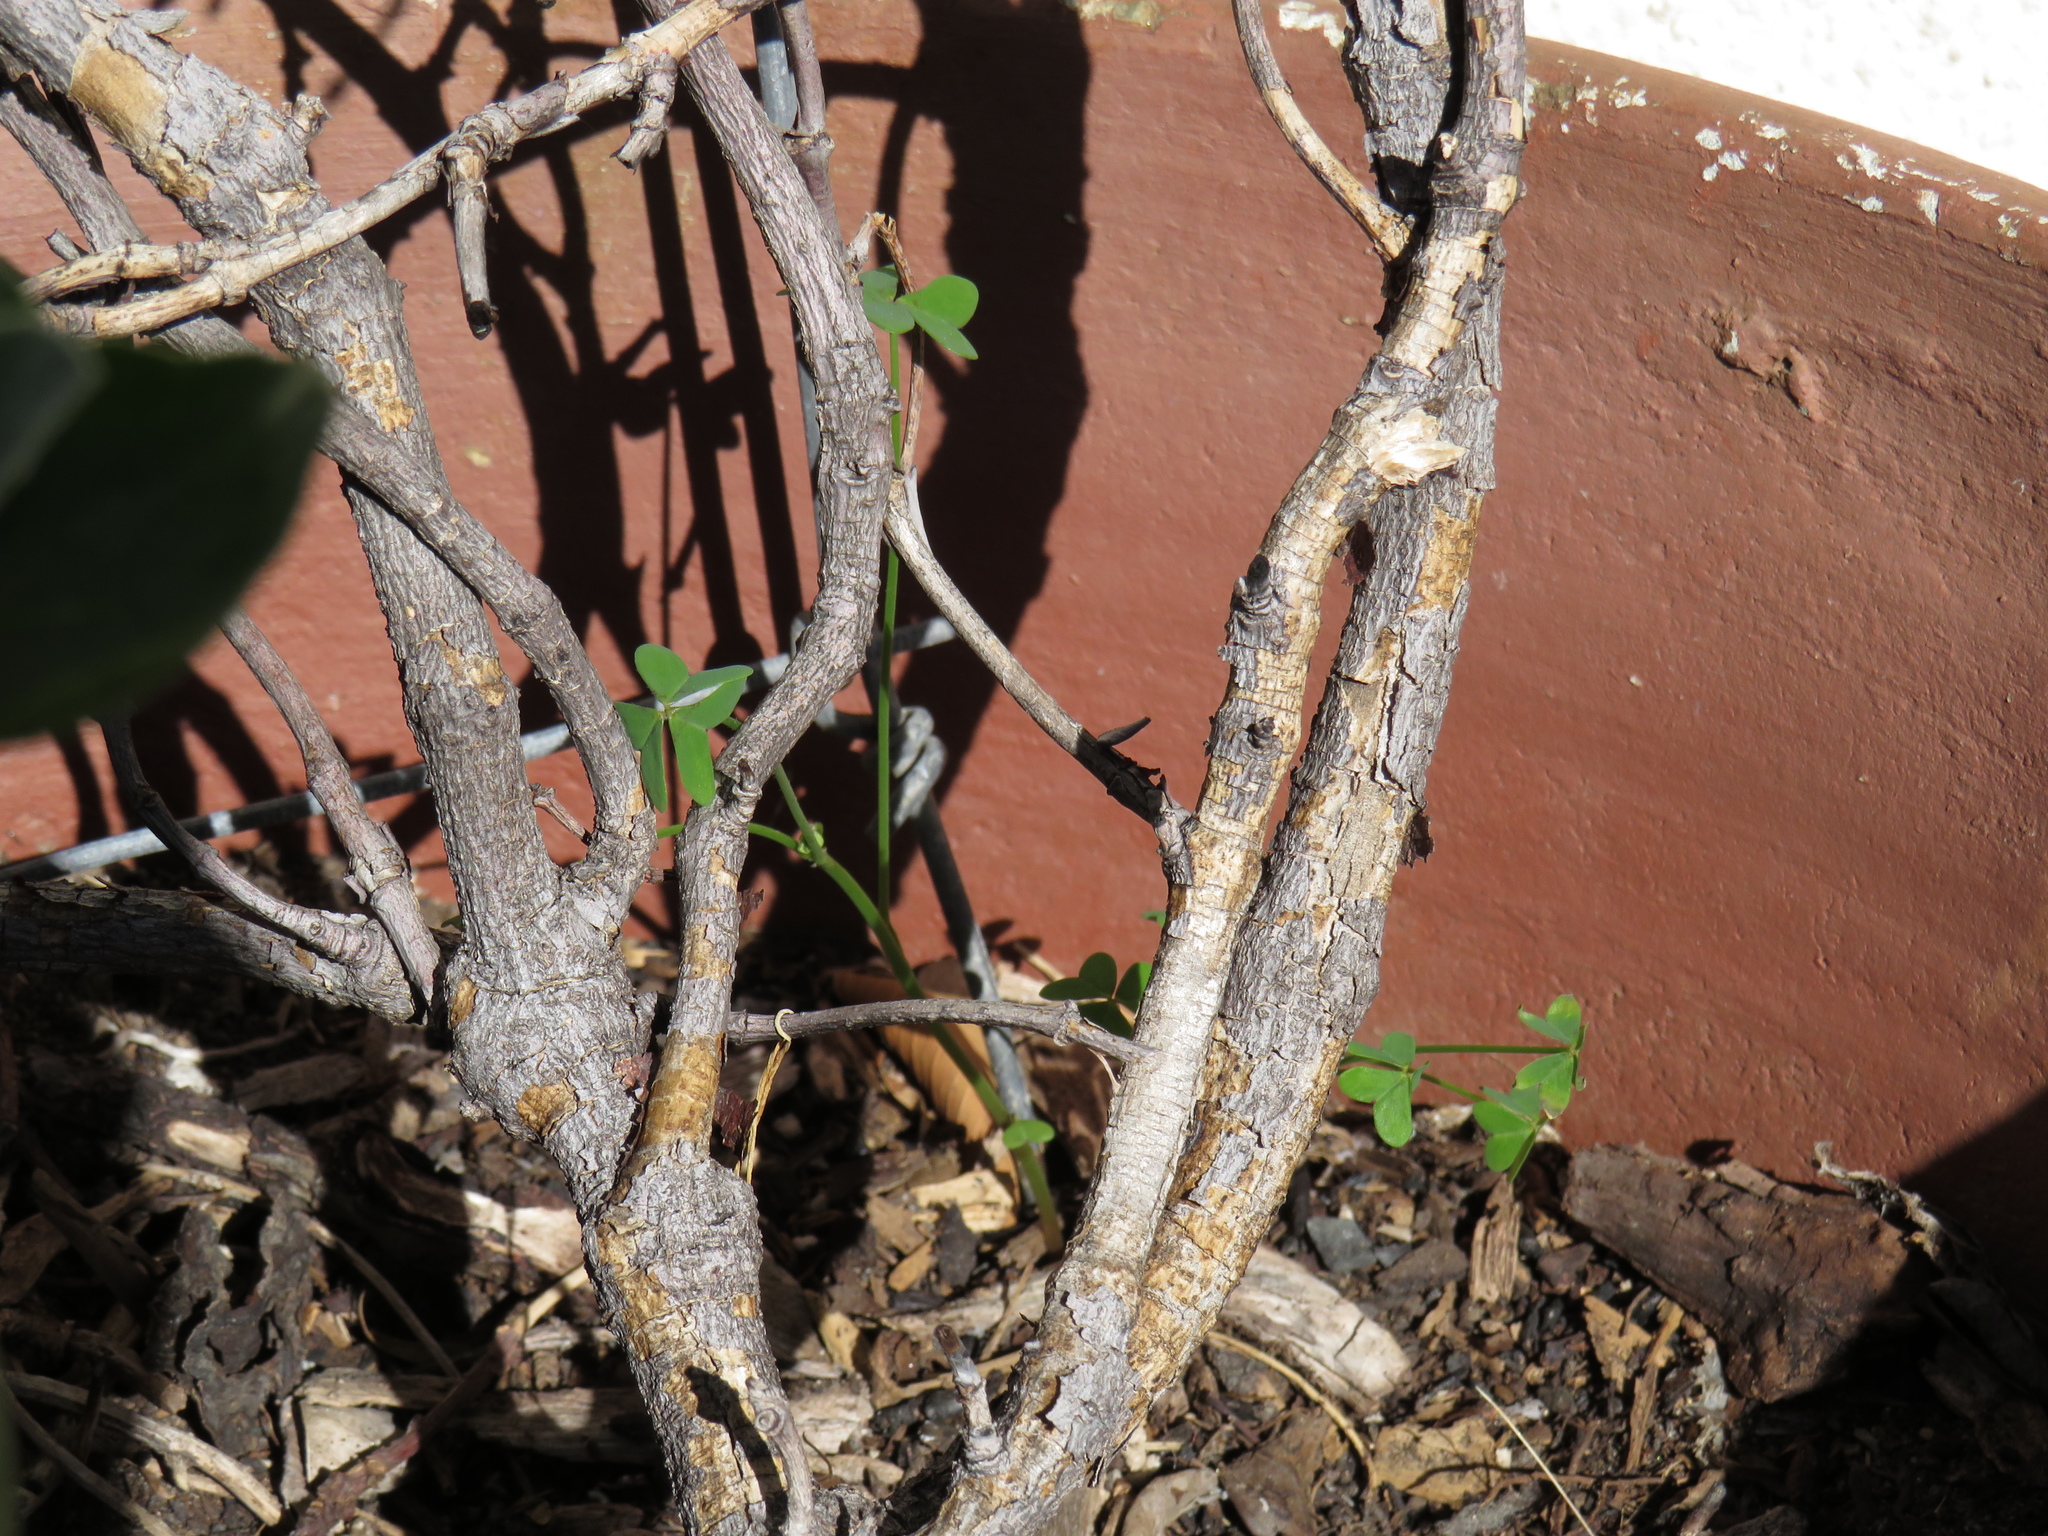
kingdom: Plantae
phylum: Tracheophyta
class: Magnoliopsida
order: Oxalidales
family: Oxalidaceae
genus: Oxalis
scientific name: Oxalis pes-caprae
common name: Bermuda-buttercup
